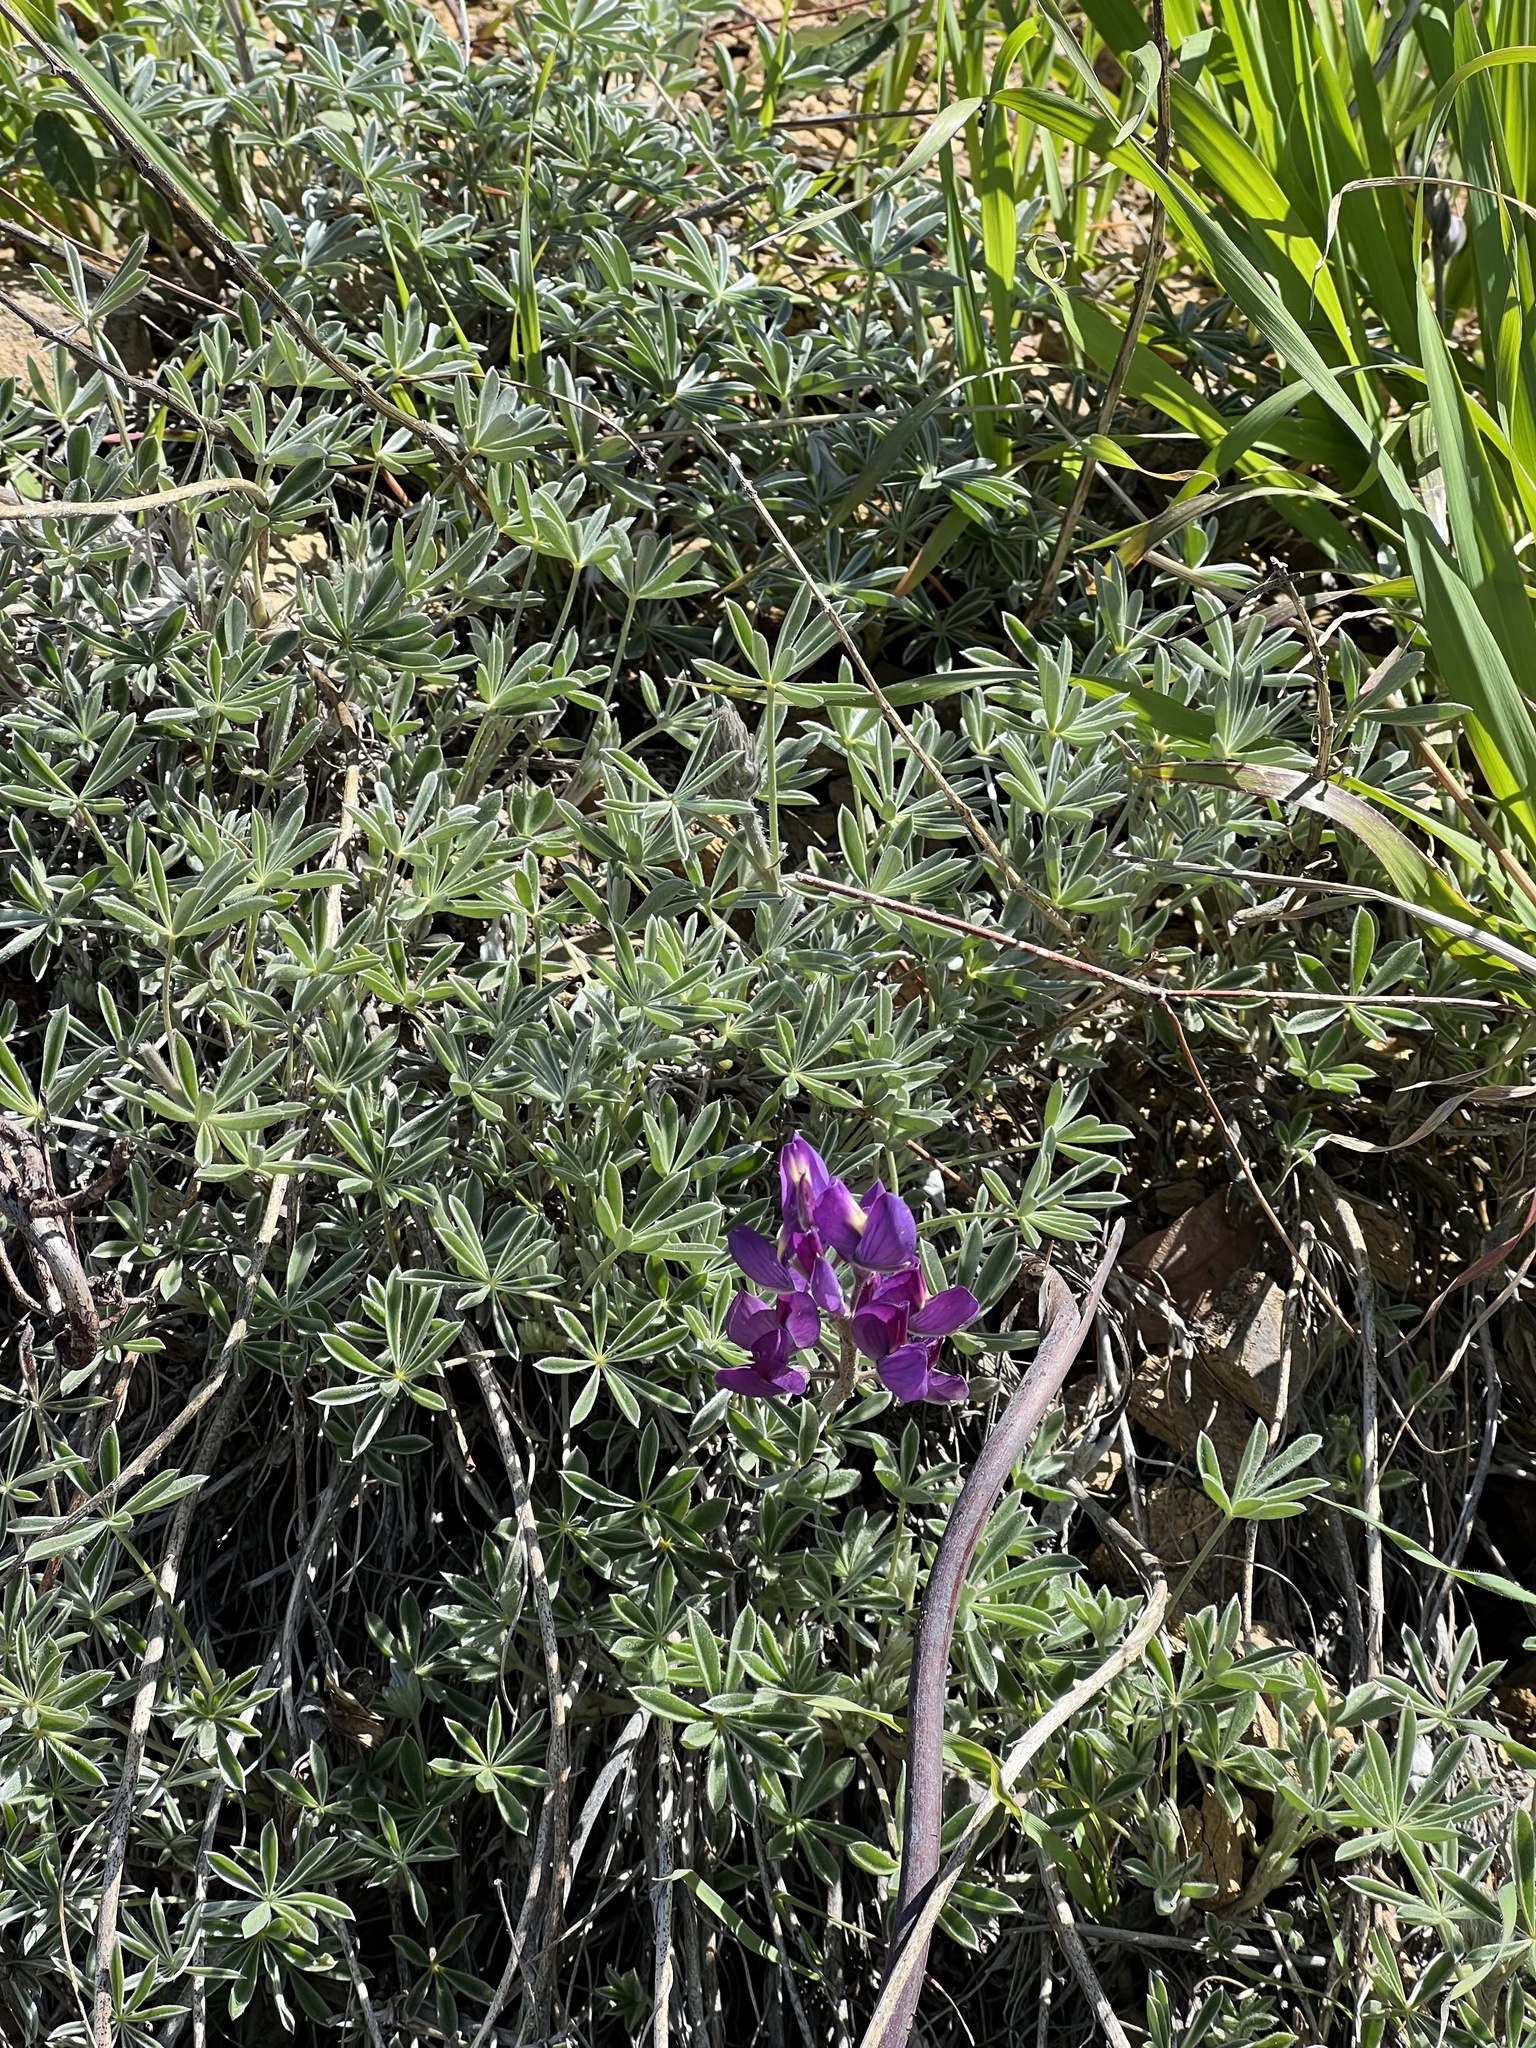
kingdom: Plantae
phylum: Tracheophyta
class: Magnoliopsida
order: Fabales
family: Fabaceae
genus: Lupinus
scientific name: Lupinus albifrons
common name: Foothill lupine
